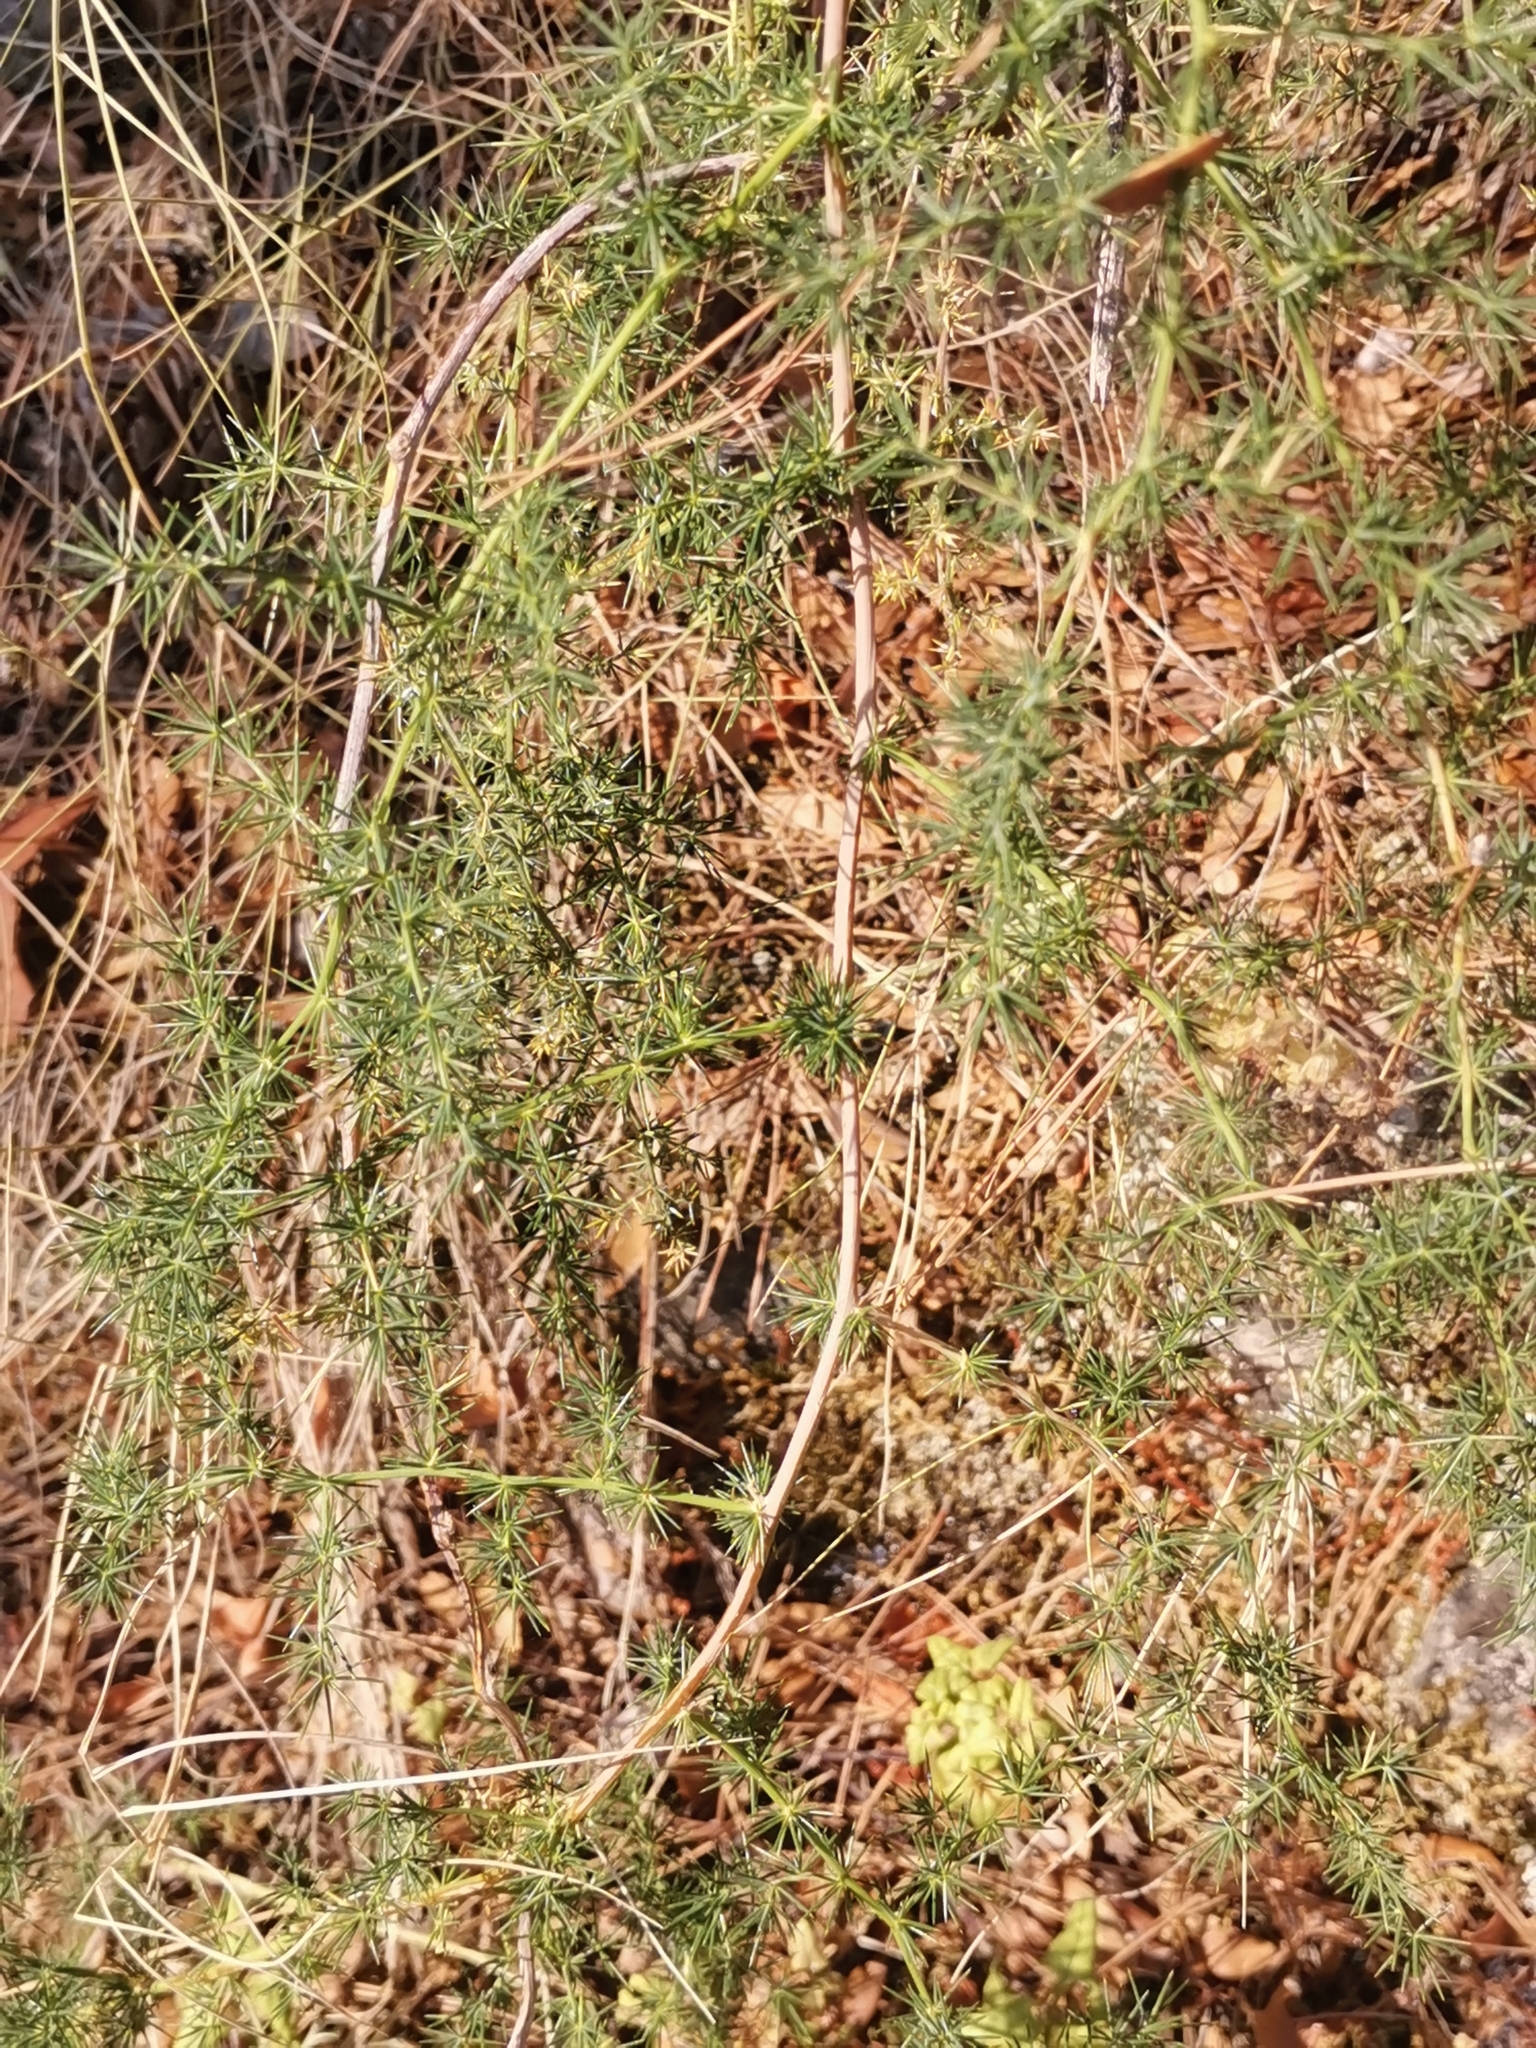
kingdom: Plantae
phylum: Tracheophyta
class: Liliopsida
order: Asparagales
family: Asparagaceae
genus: Asparagus
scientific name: Asparagus acutifolius
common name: Wild asparagus
